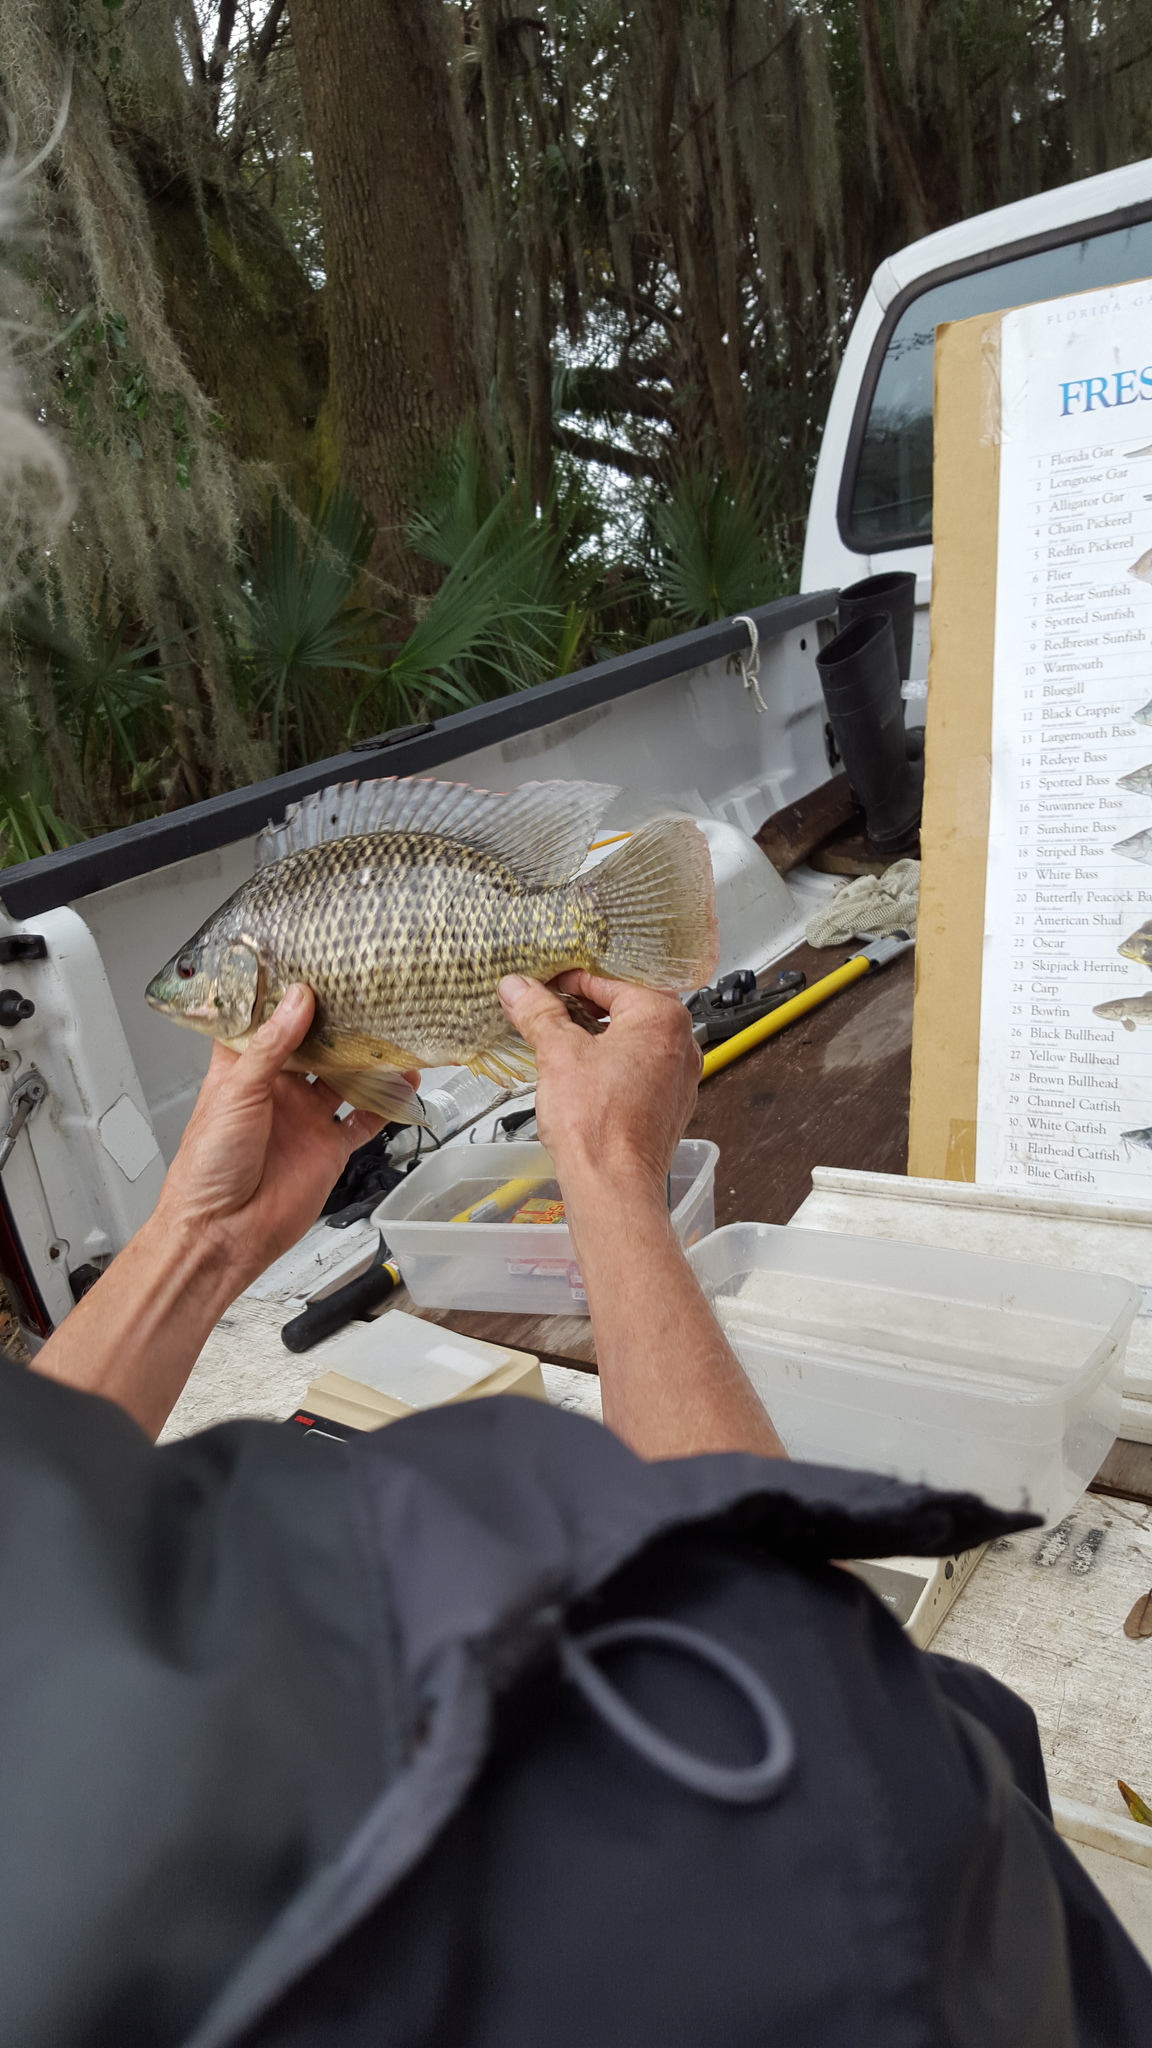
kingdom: Animalia
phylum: Chordata
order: Perciformes
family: Cichlidae
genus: Oreochromis
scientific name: Oreochromis aureus
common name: Blue tilapia
